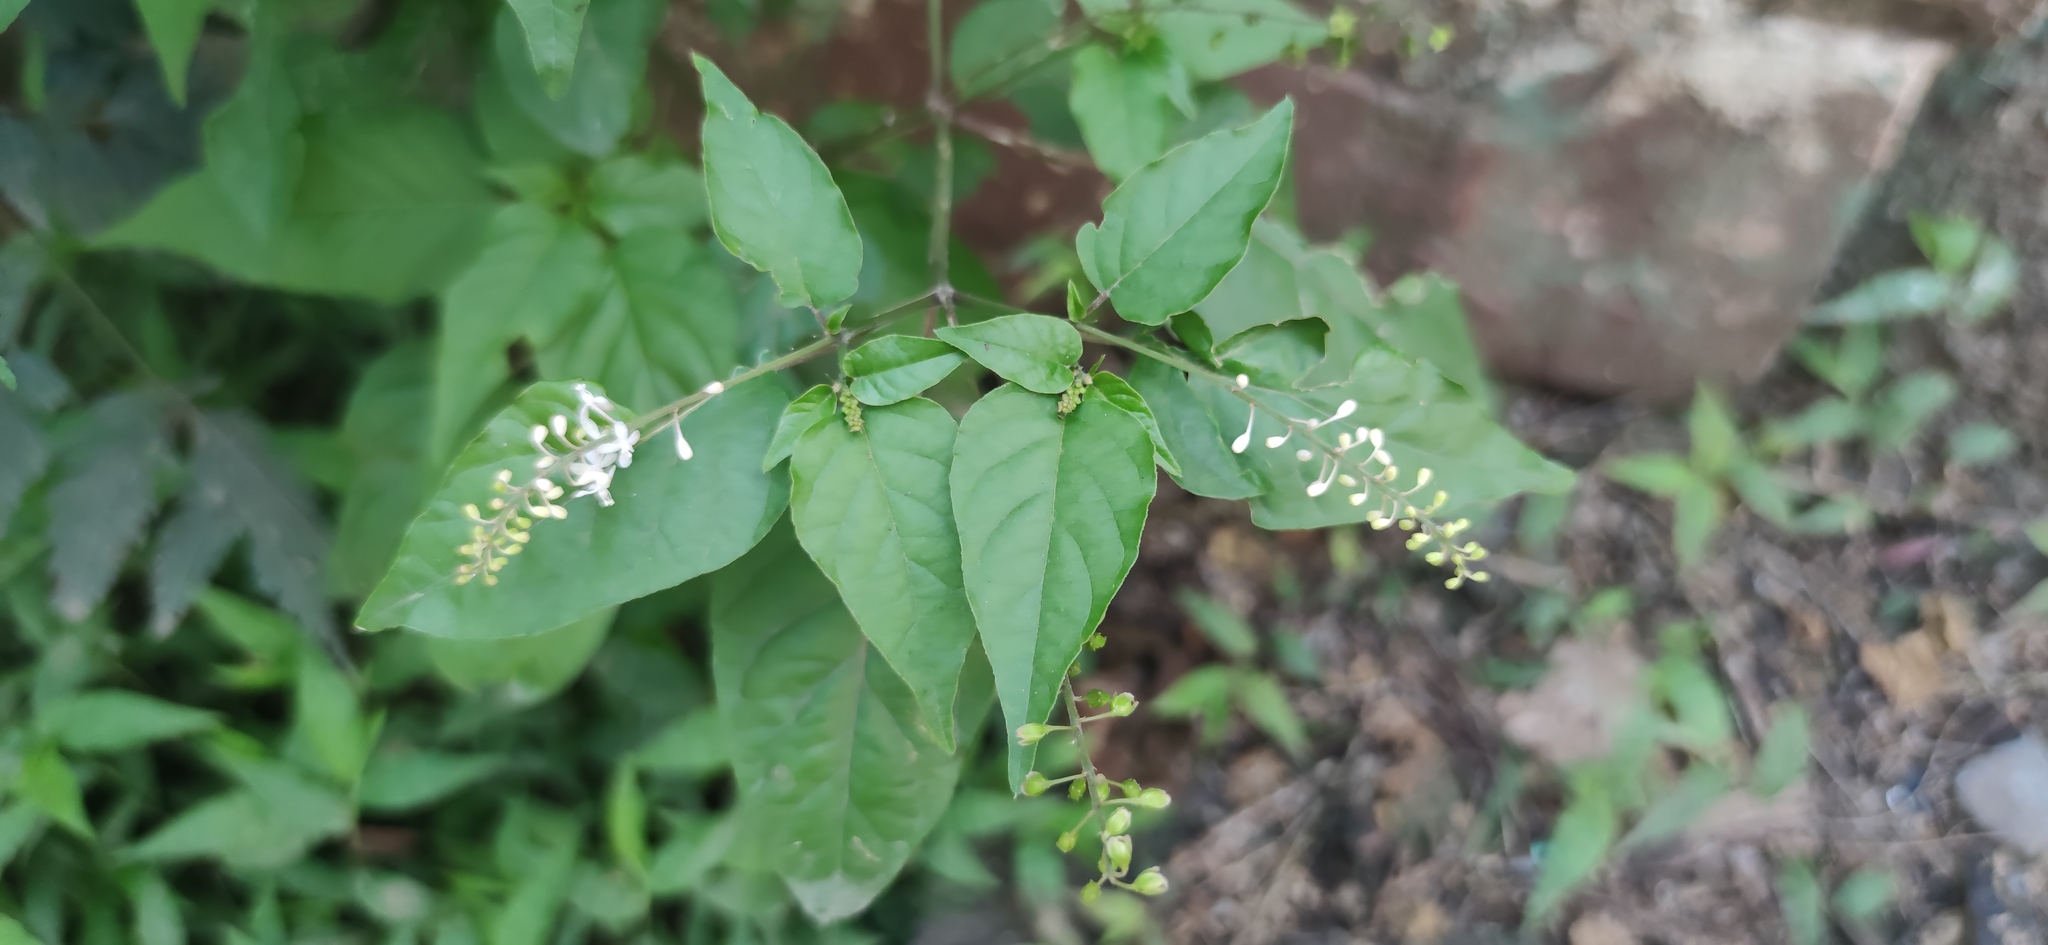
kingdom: Plantae
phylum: Tracheophyta
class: Magnoliopsida
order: Caryophyllales
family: Phytolaccaceae
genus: Rivina
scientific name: Rivina humilis
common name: Rougeplant
